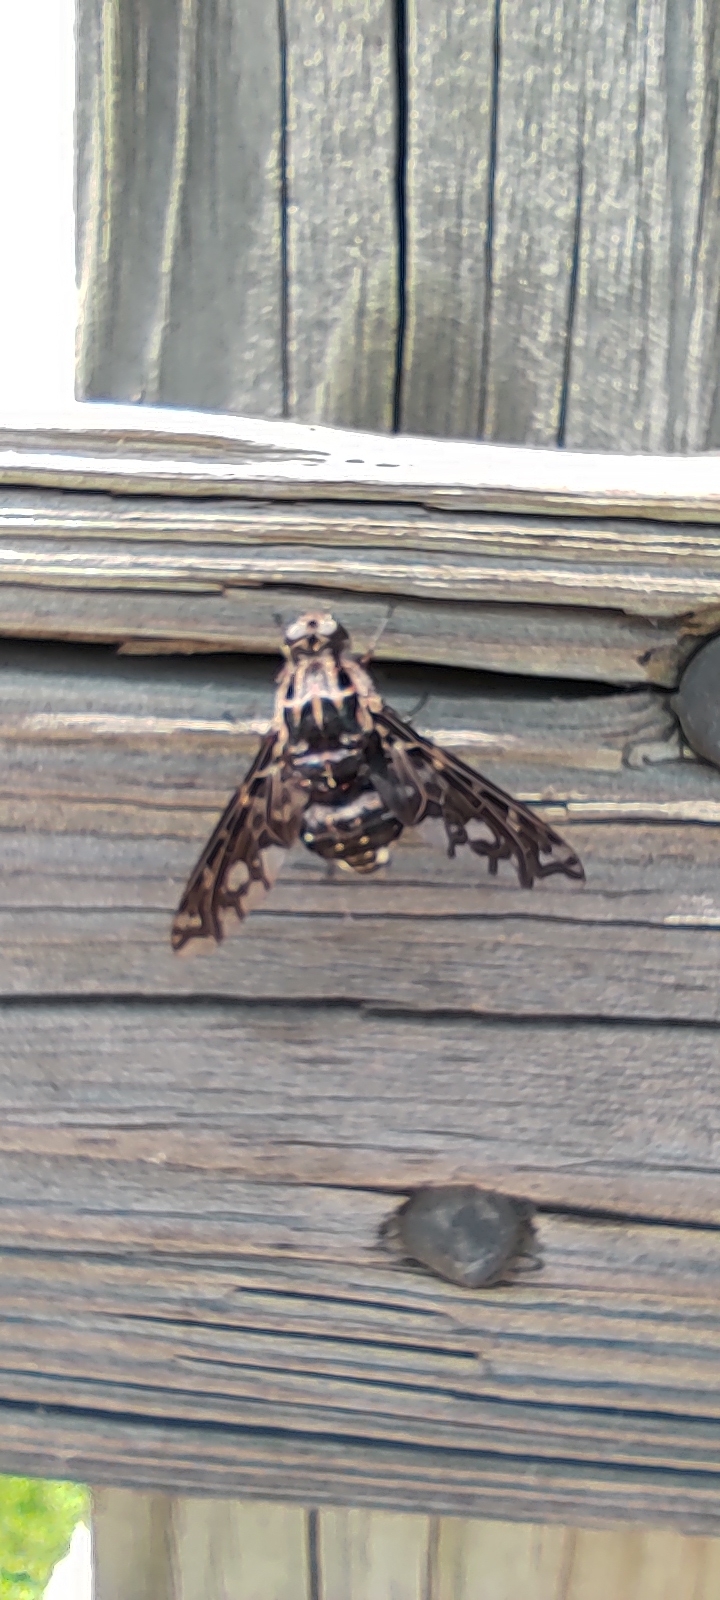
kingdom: Animalia
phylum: Arthropoda
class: Insecta
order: Diptera
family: Bombyliidae
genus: Xenox
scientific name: Xenox tigrinus
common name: Tiger bee fly
